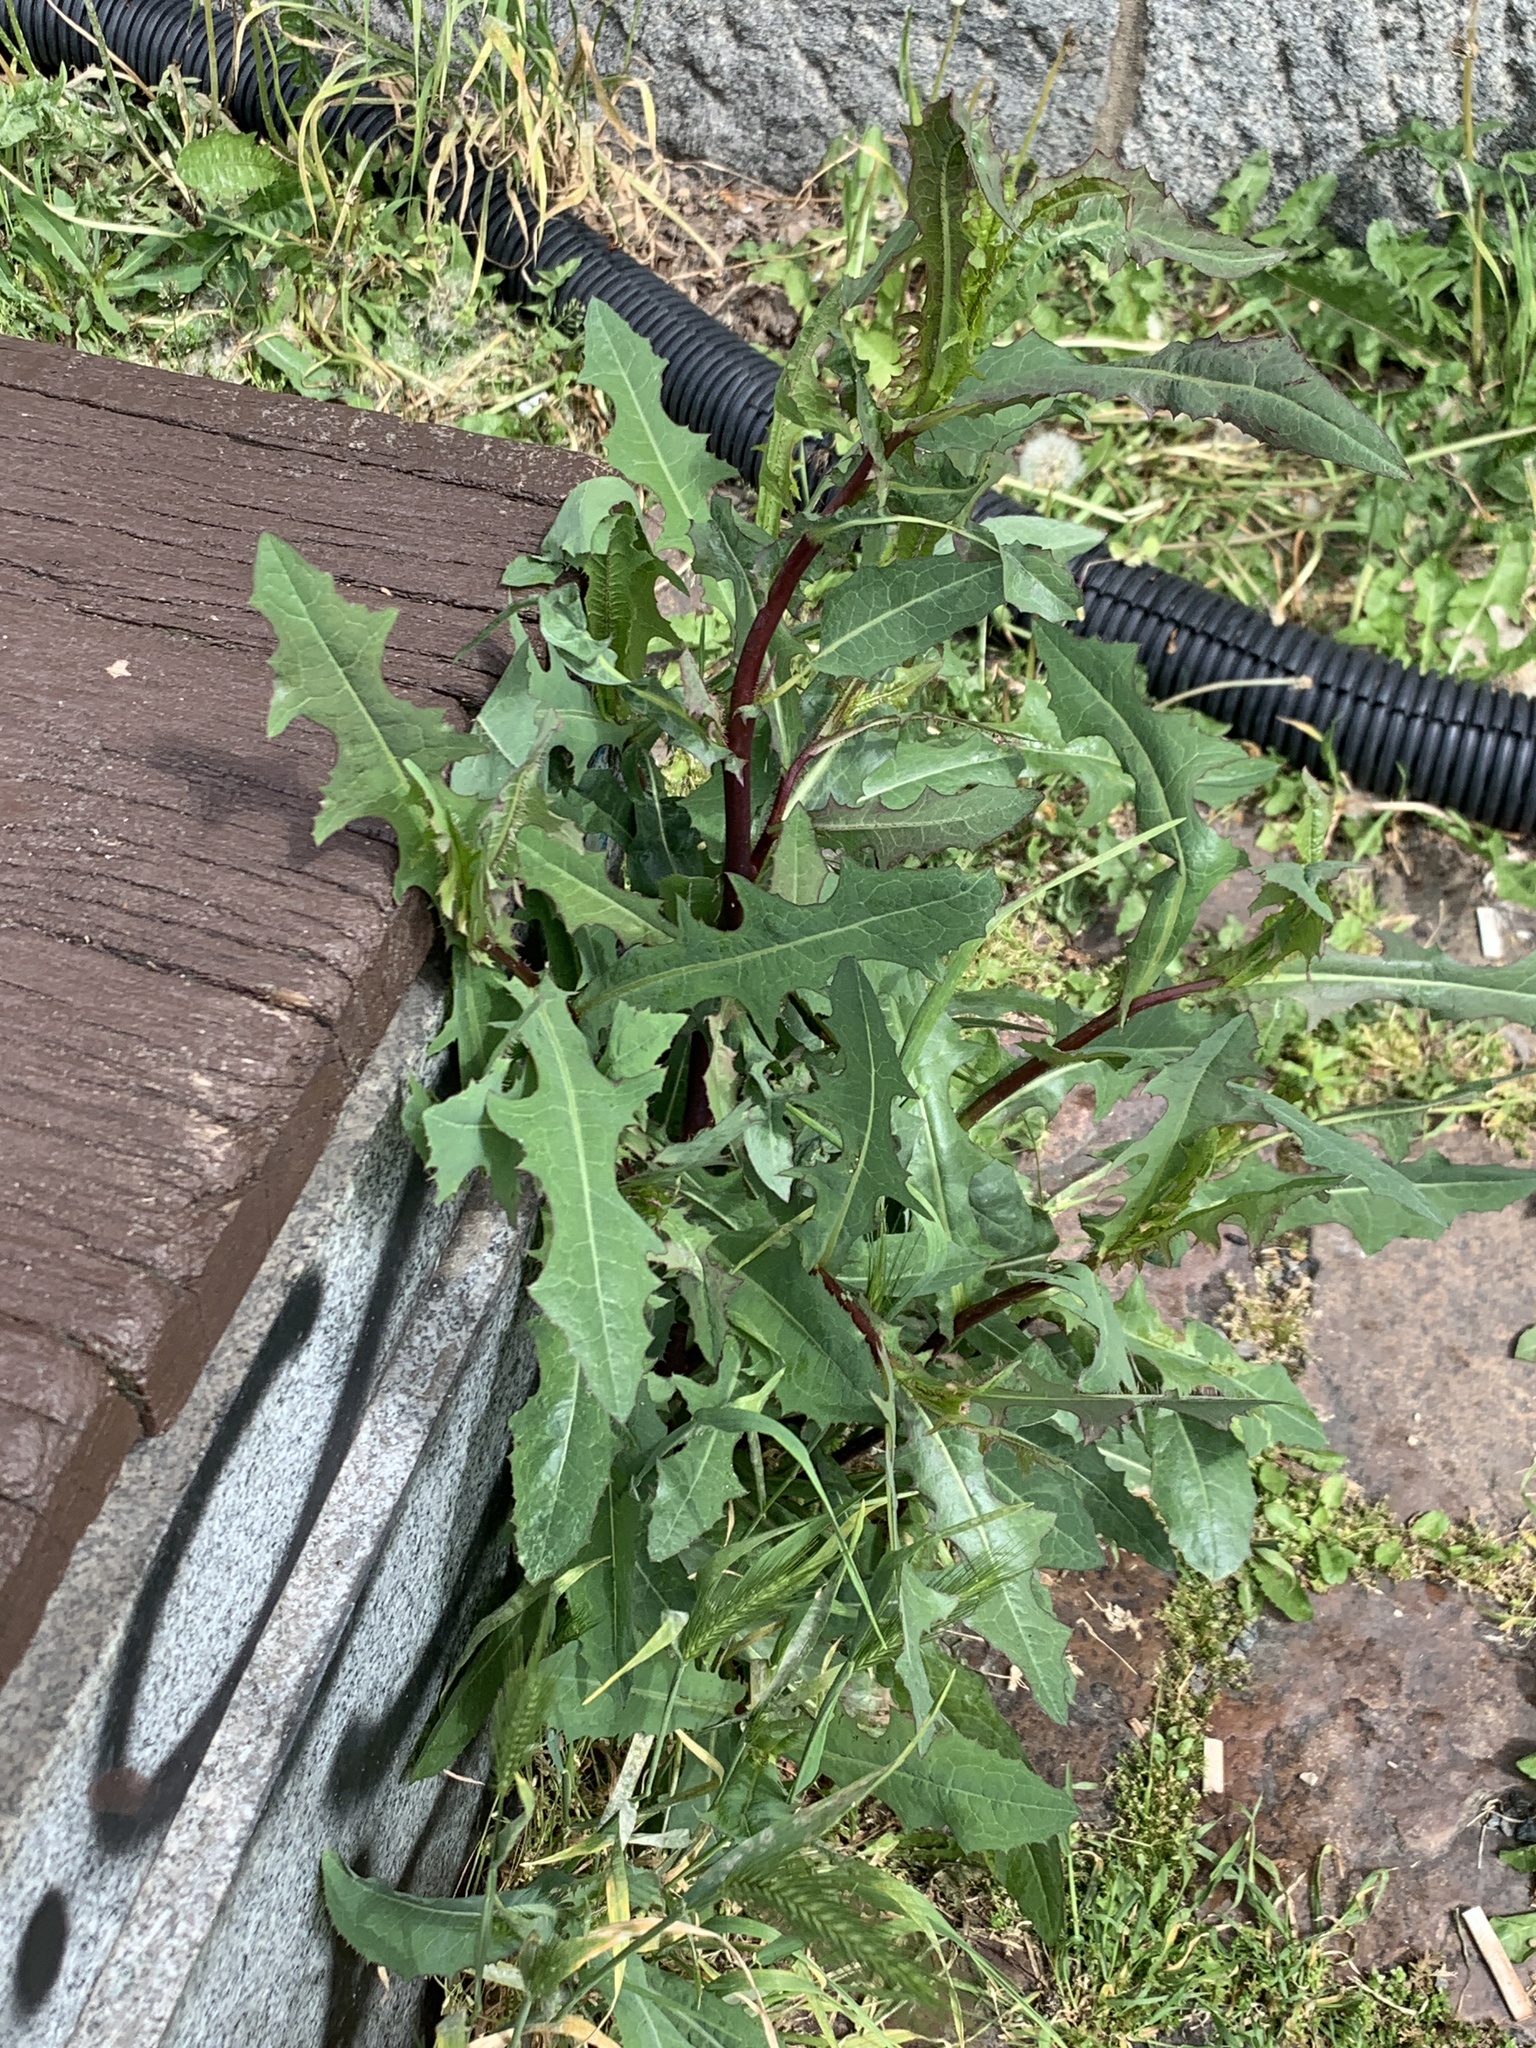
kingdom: Plantae
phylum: Tracheophyta
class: Magnoliopsida
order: Asterales
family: Asteraceae
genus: Lactuca
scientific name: Lactuca serriola
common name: Prickly lettuce
